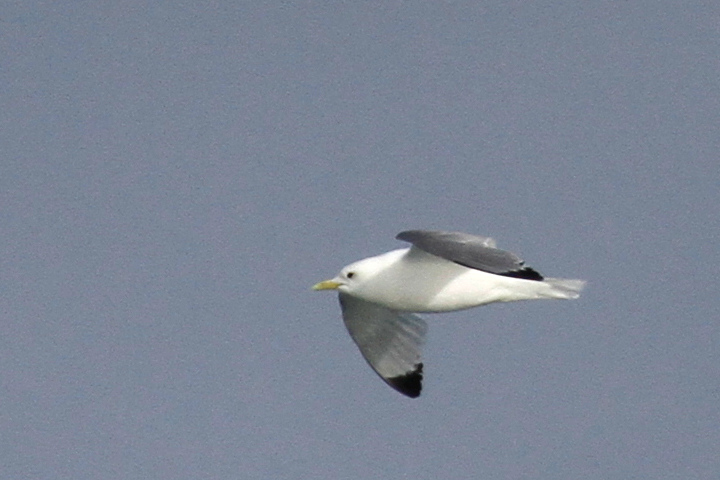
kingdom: Animalia
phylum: Chordata
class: Aves
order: Charadriiformes
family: Laridae
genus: Rissa
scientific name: Rissa tridactyla
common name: Black-legged kittiwake
